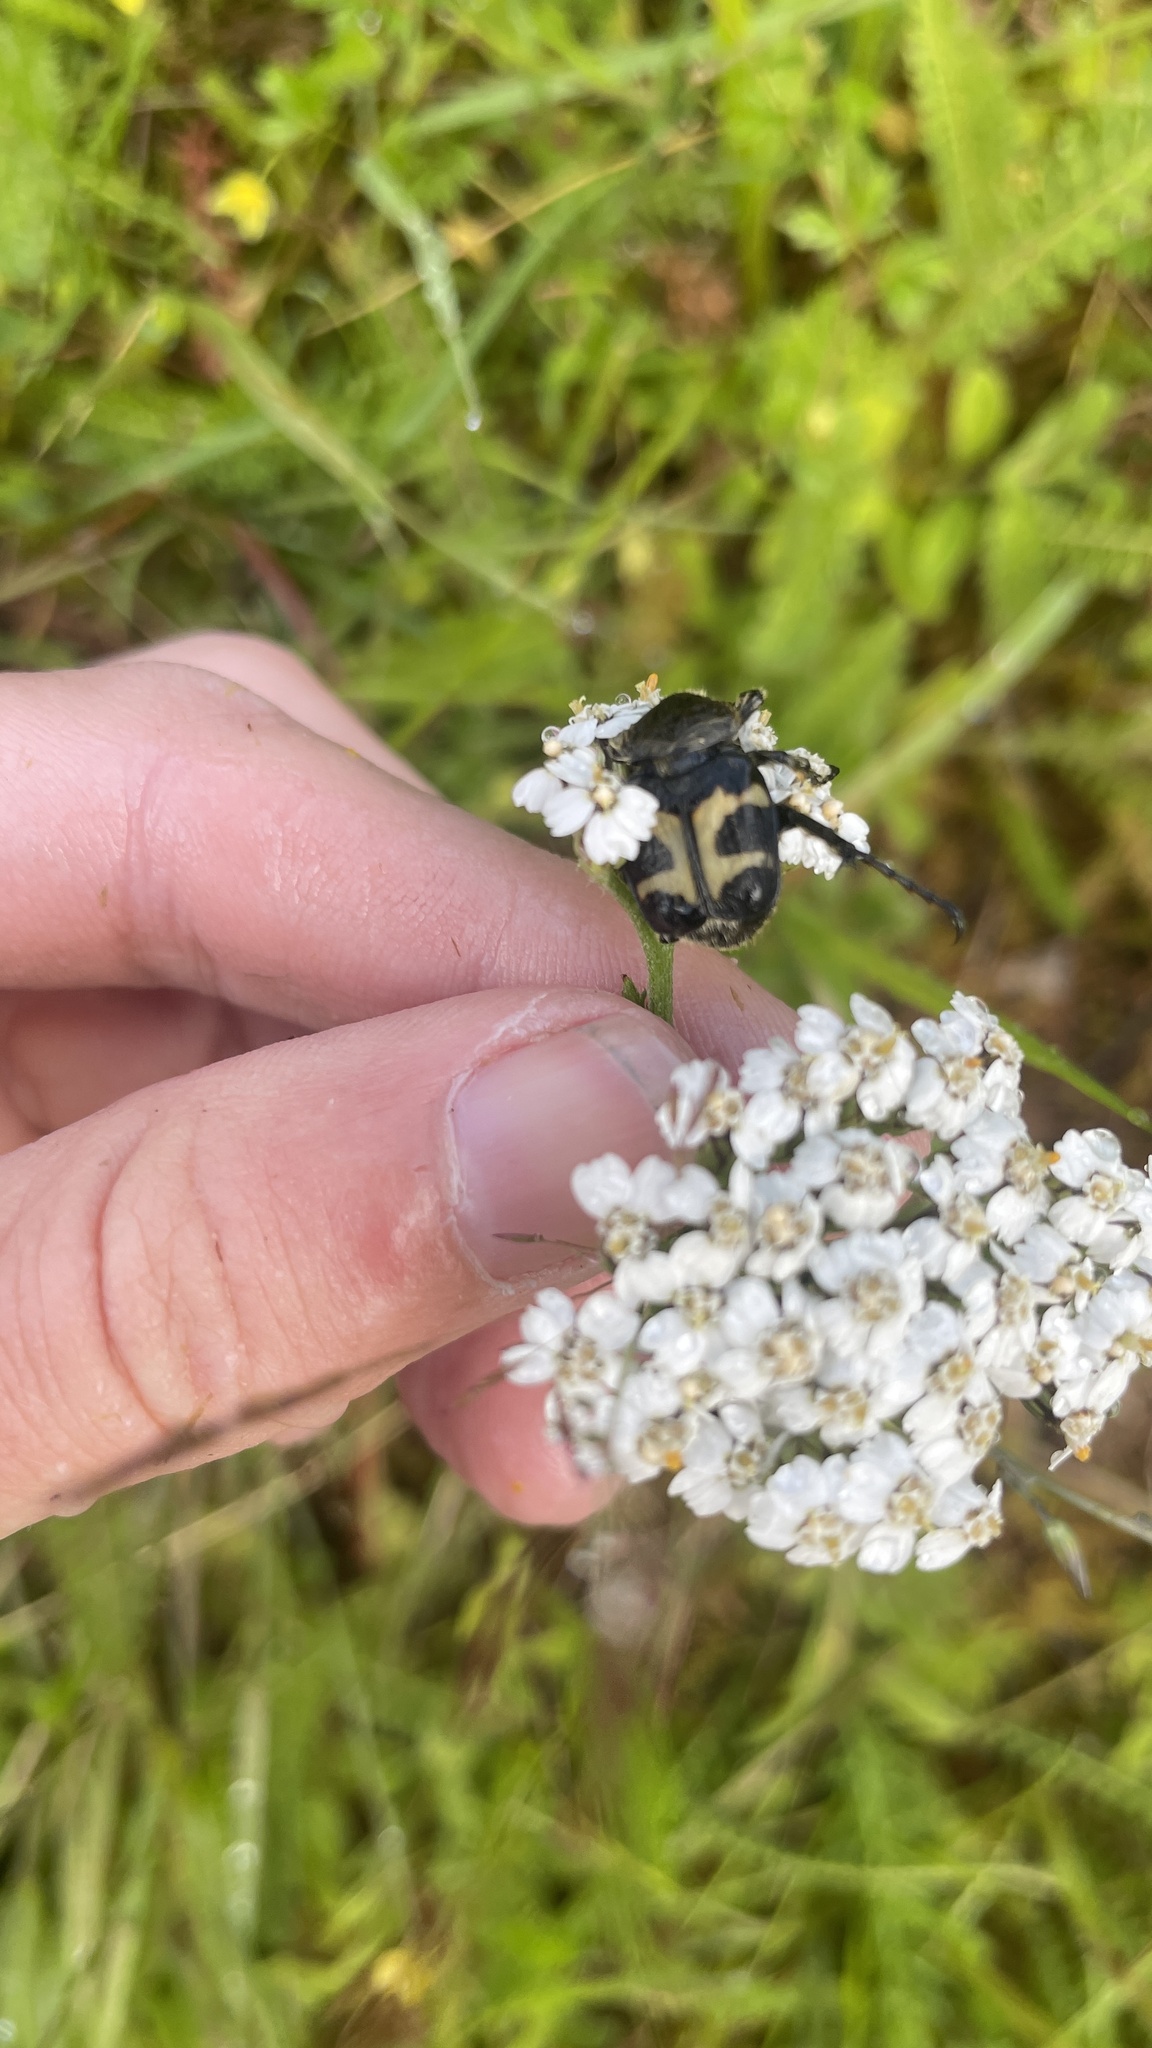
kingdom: Animalia
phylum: Arthropoda
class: Insecta
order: Coleoptera
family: Scarabaeidae
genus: Trichius
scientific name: Trichius fasciatus
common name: Bee beetle
